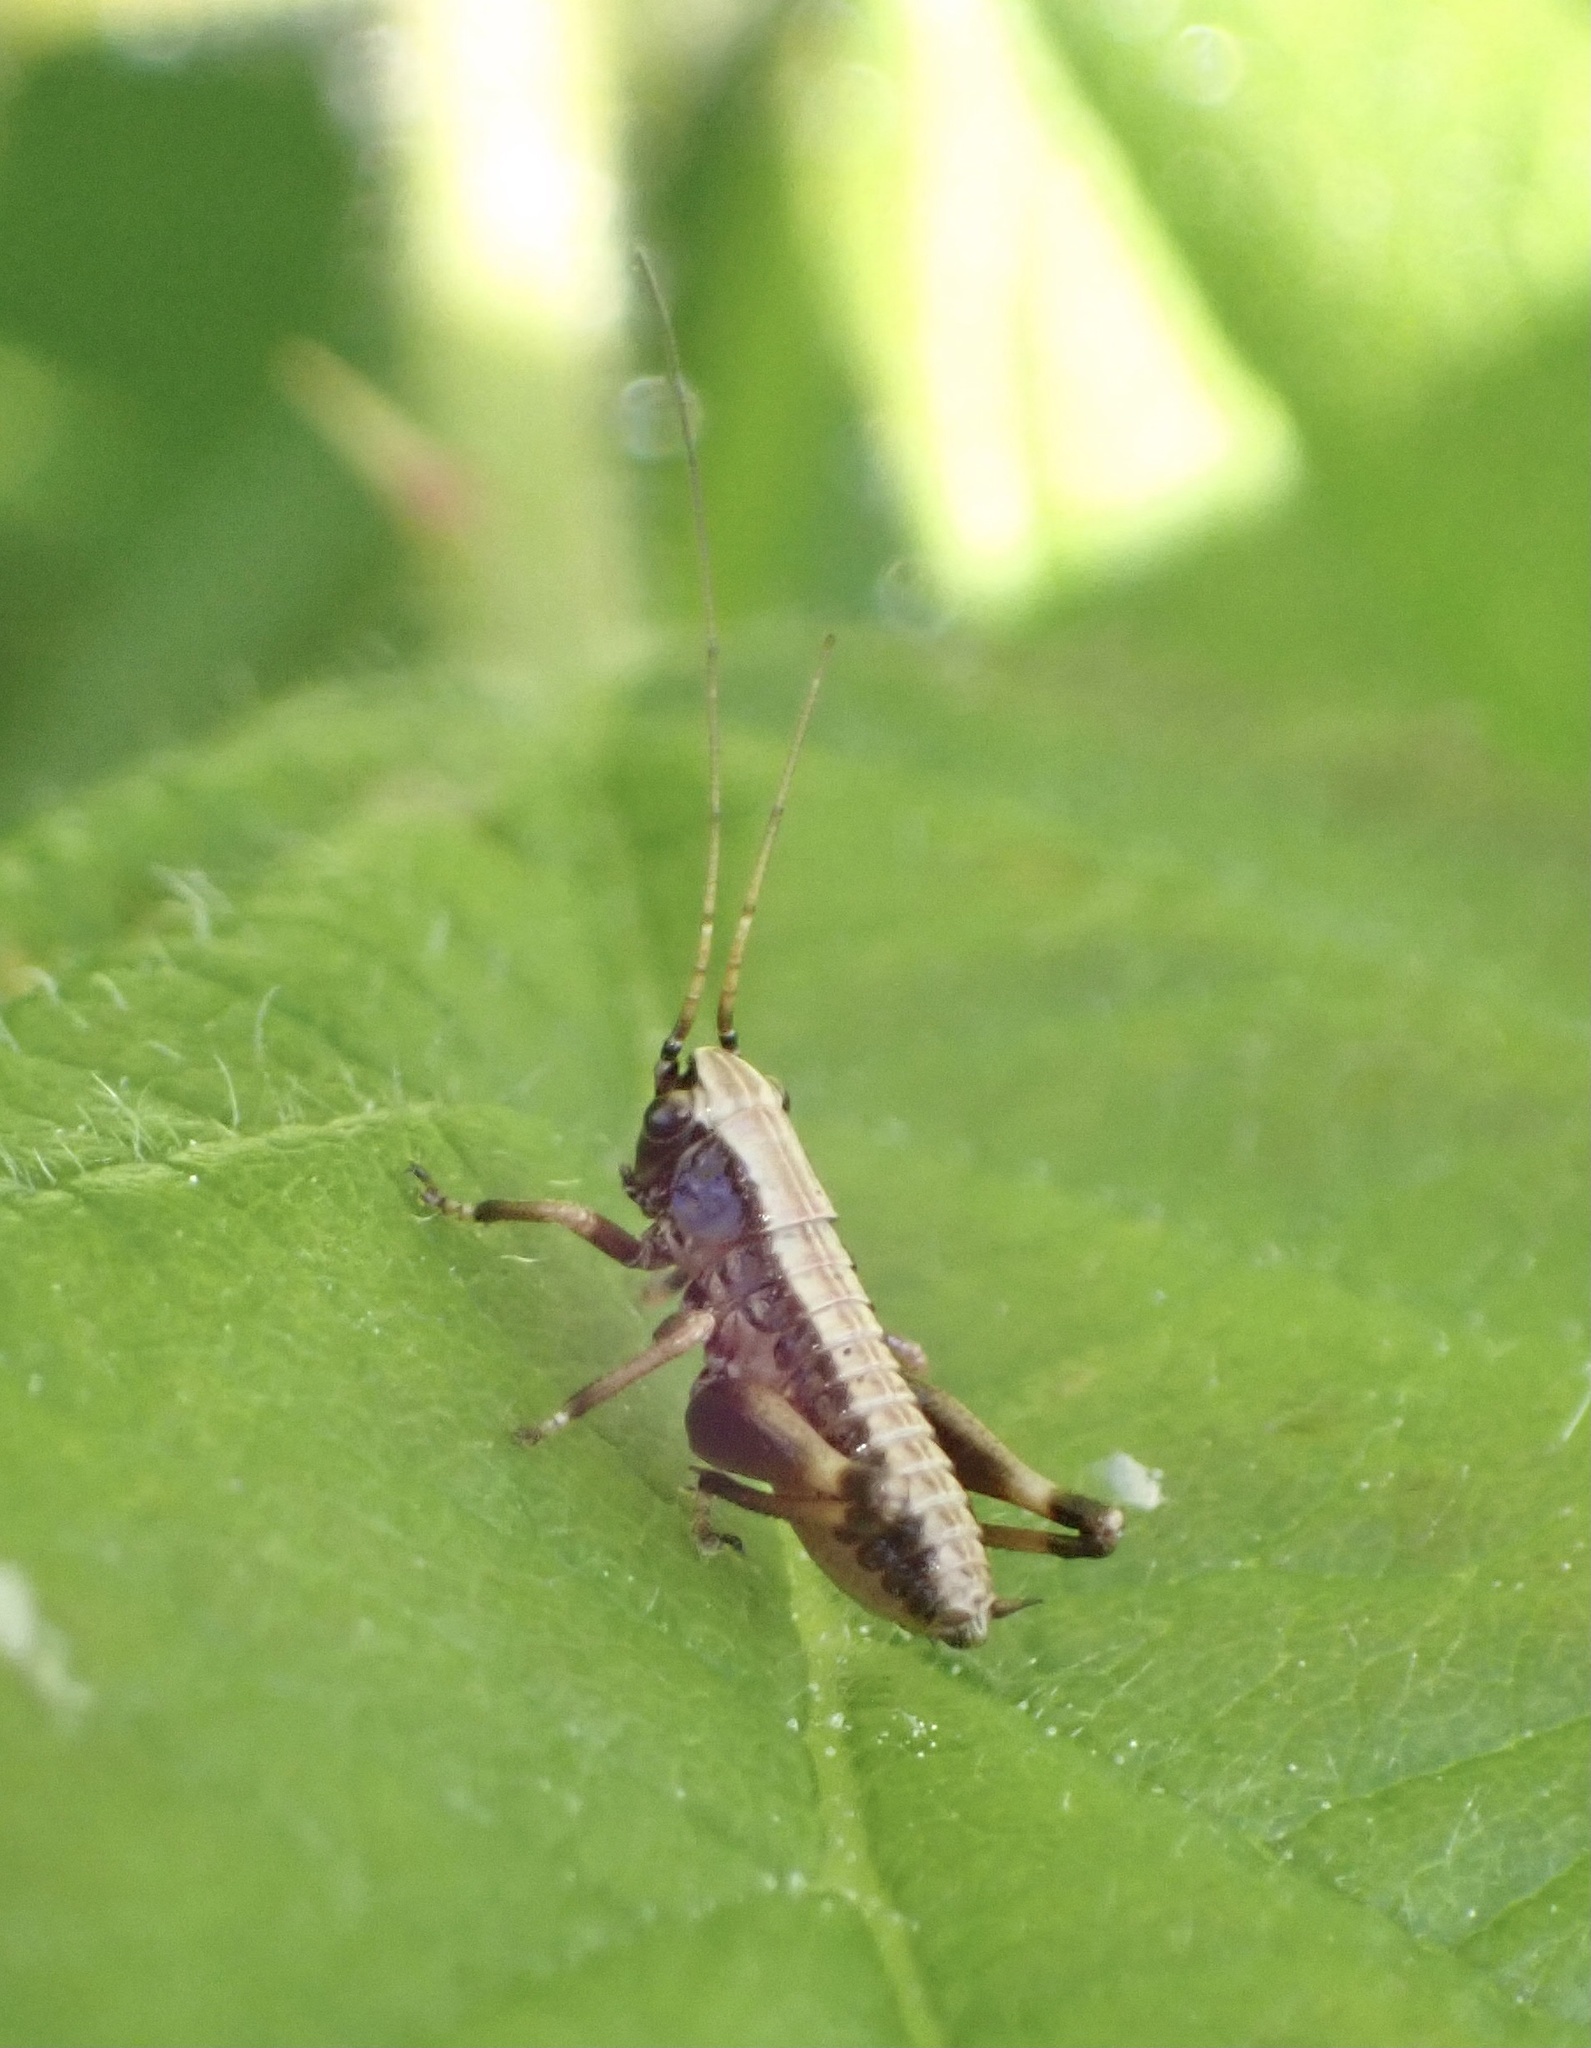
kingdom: Animalia
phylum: Arthropoda
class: Insecta
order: Orthoptera
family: Tettigoniidae
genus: Pholidoptera
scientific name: Pholidoptera griseoaptera
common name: Dark bush-cricket
